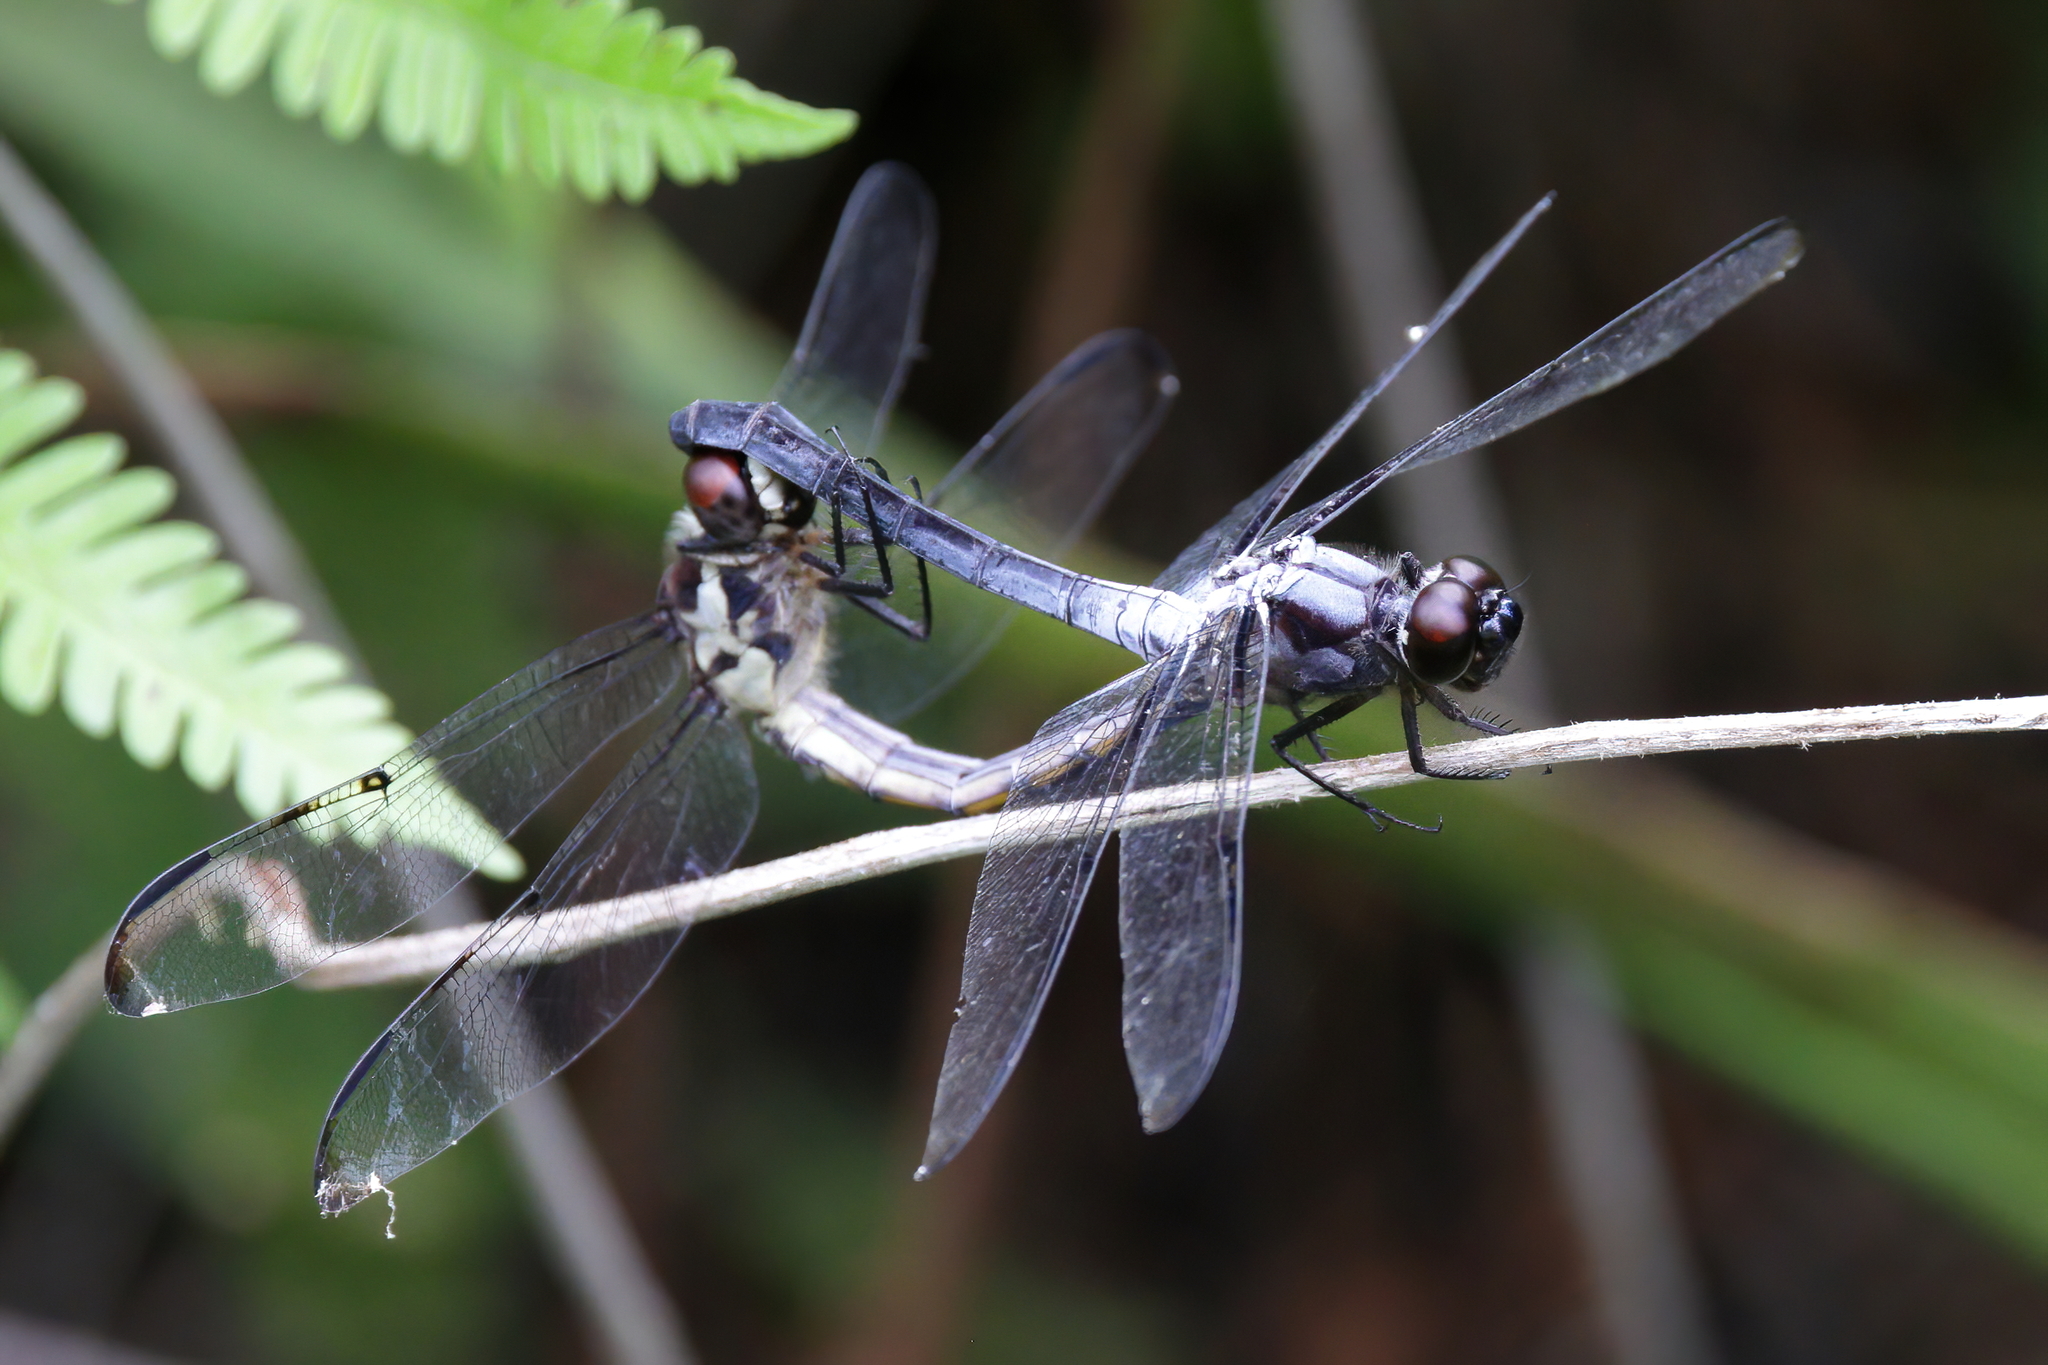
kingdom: Animalia
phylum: Arthropoda
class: Insecta
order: Odonata
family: Libellulidae
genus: Libellula
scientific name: Libellula axilena
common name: Bar-winged skimmer
